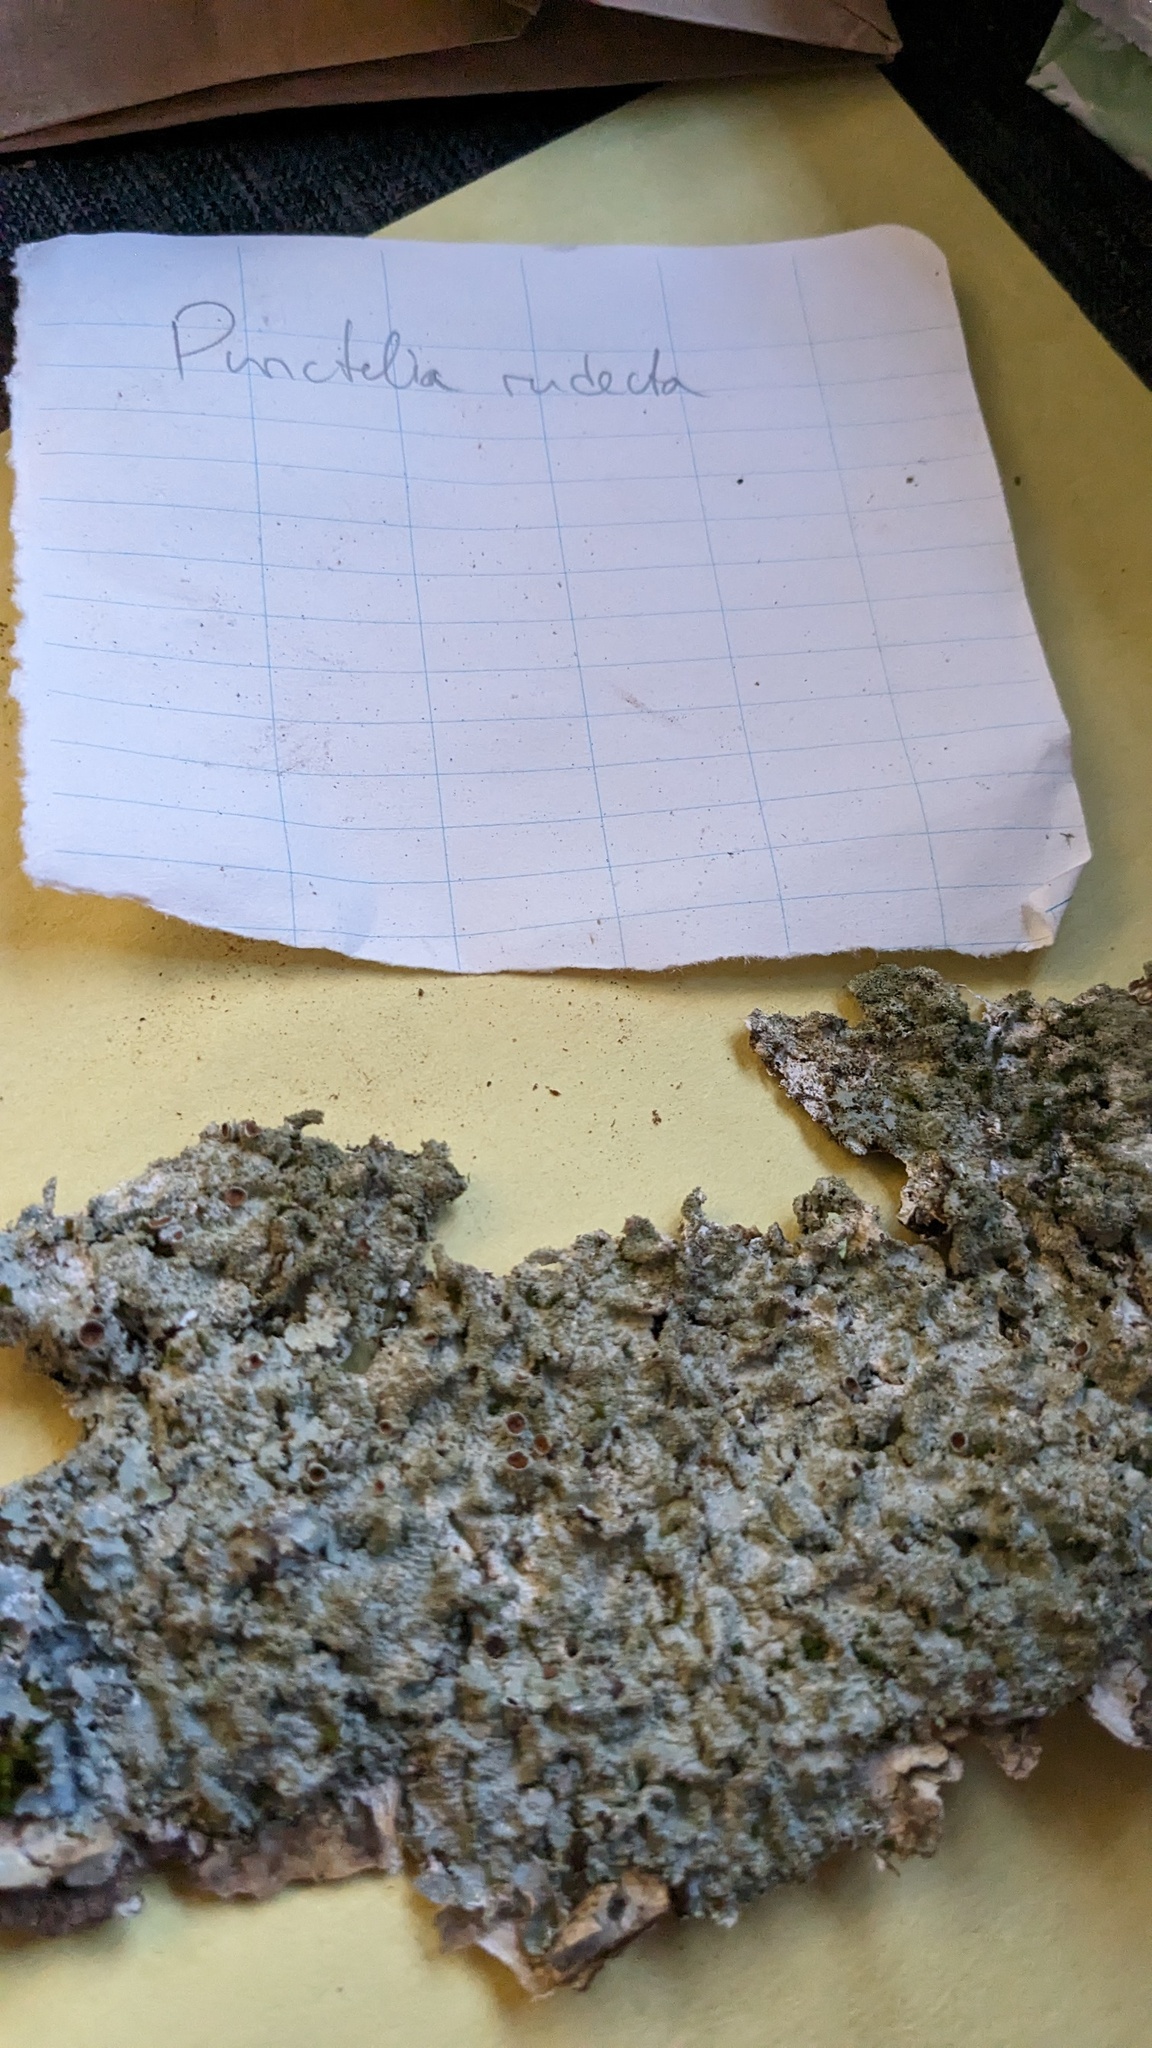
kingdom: Fungi
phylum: Ascomycota
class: Lecanoromycetes
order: Lecanorales
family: Parmeliaceae
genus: Punctelia
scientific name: Punctelia rudecta
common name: Rough speckled shield lichen
